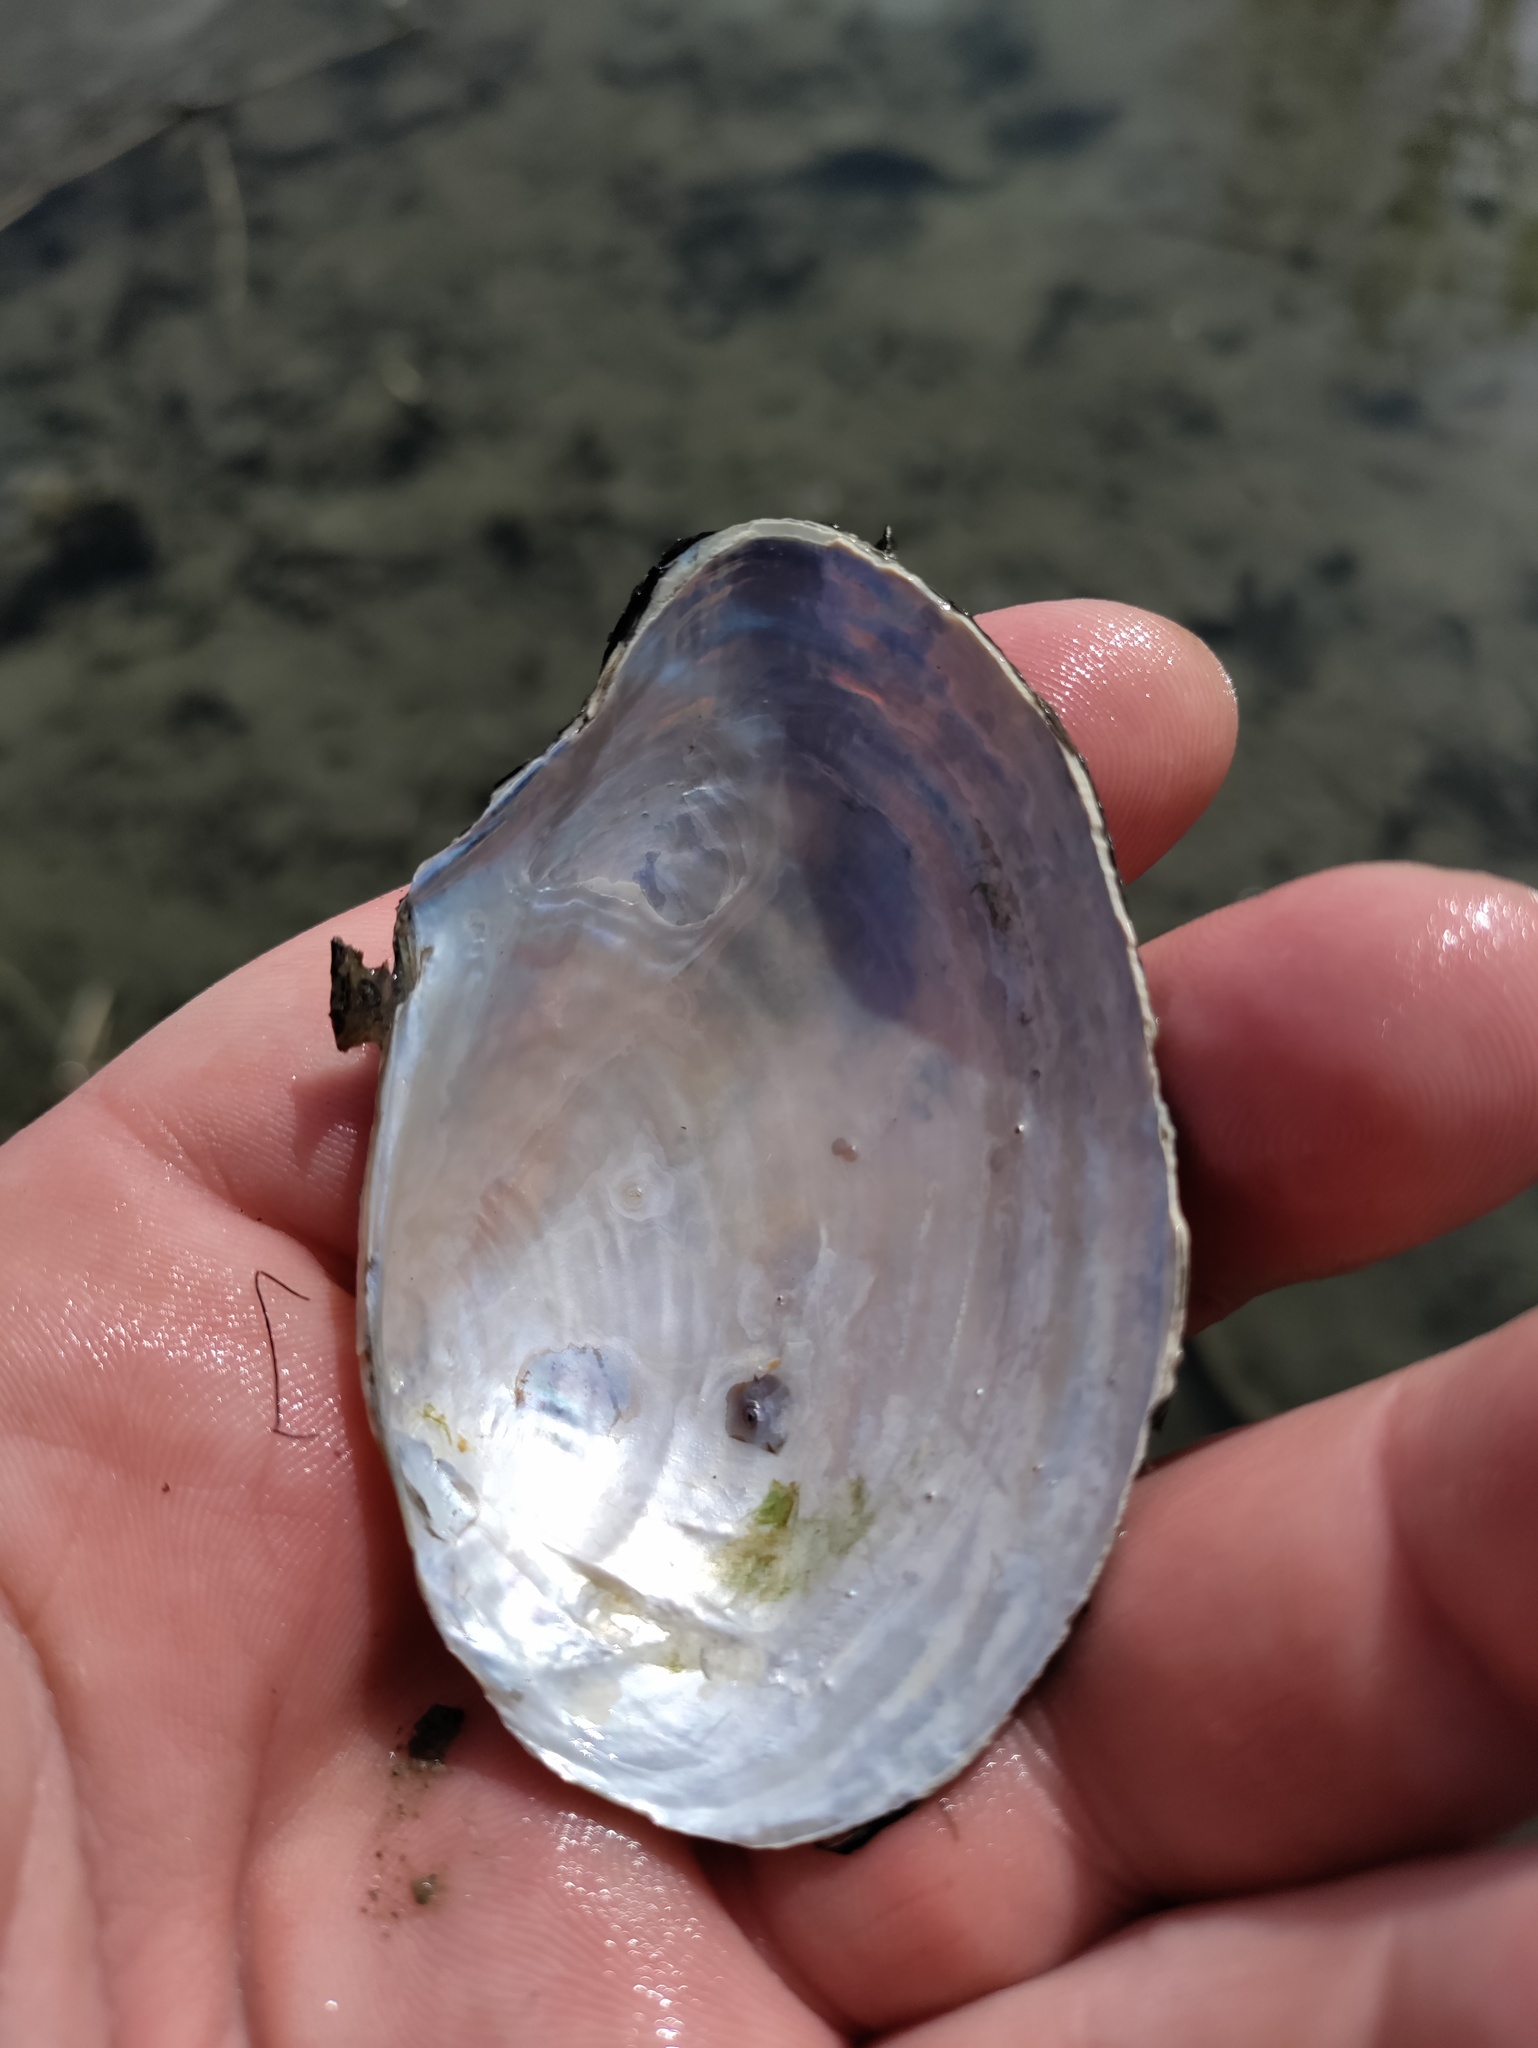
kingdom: Animalia
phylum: Mollusca
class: Bivalvia
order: Unionida
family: Unionidae
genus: Anodonta
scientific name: Anodonta anatina
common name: Duck mussel
